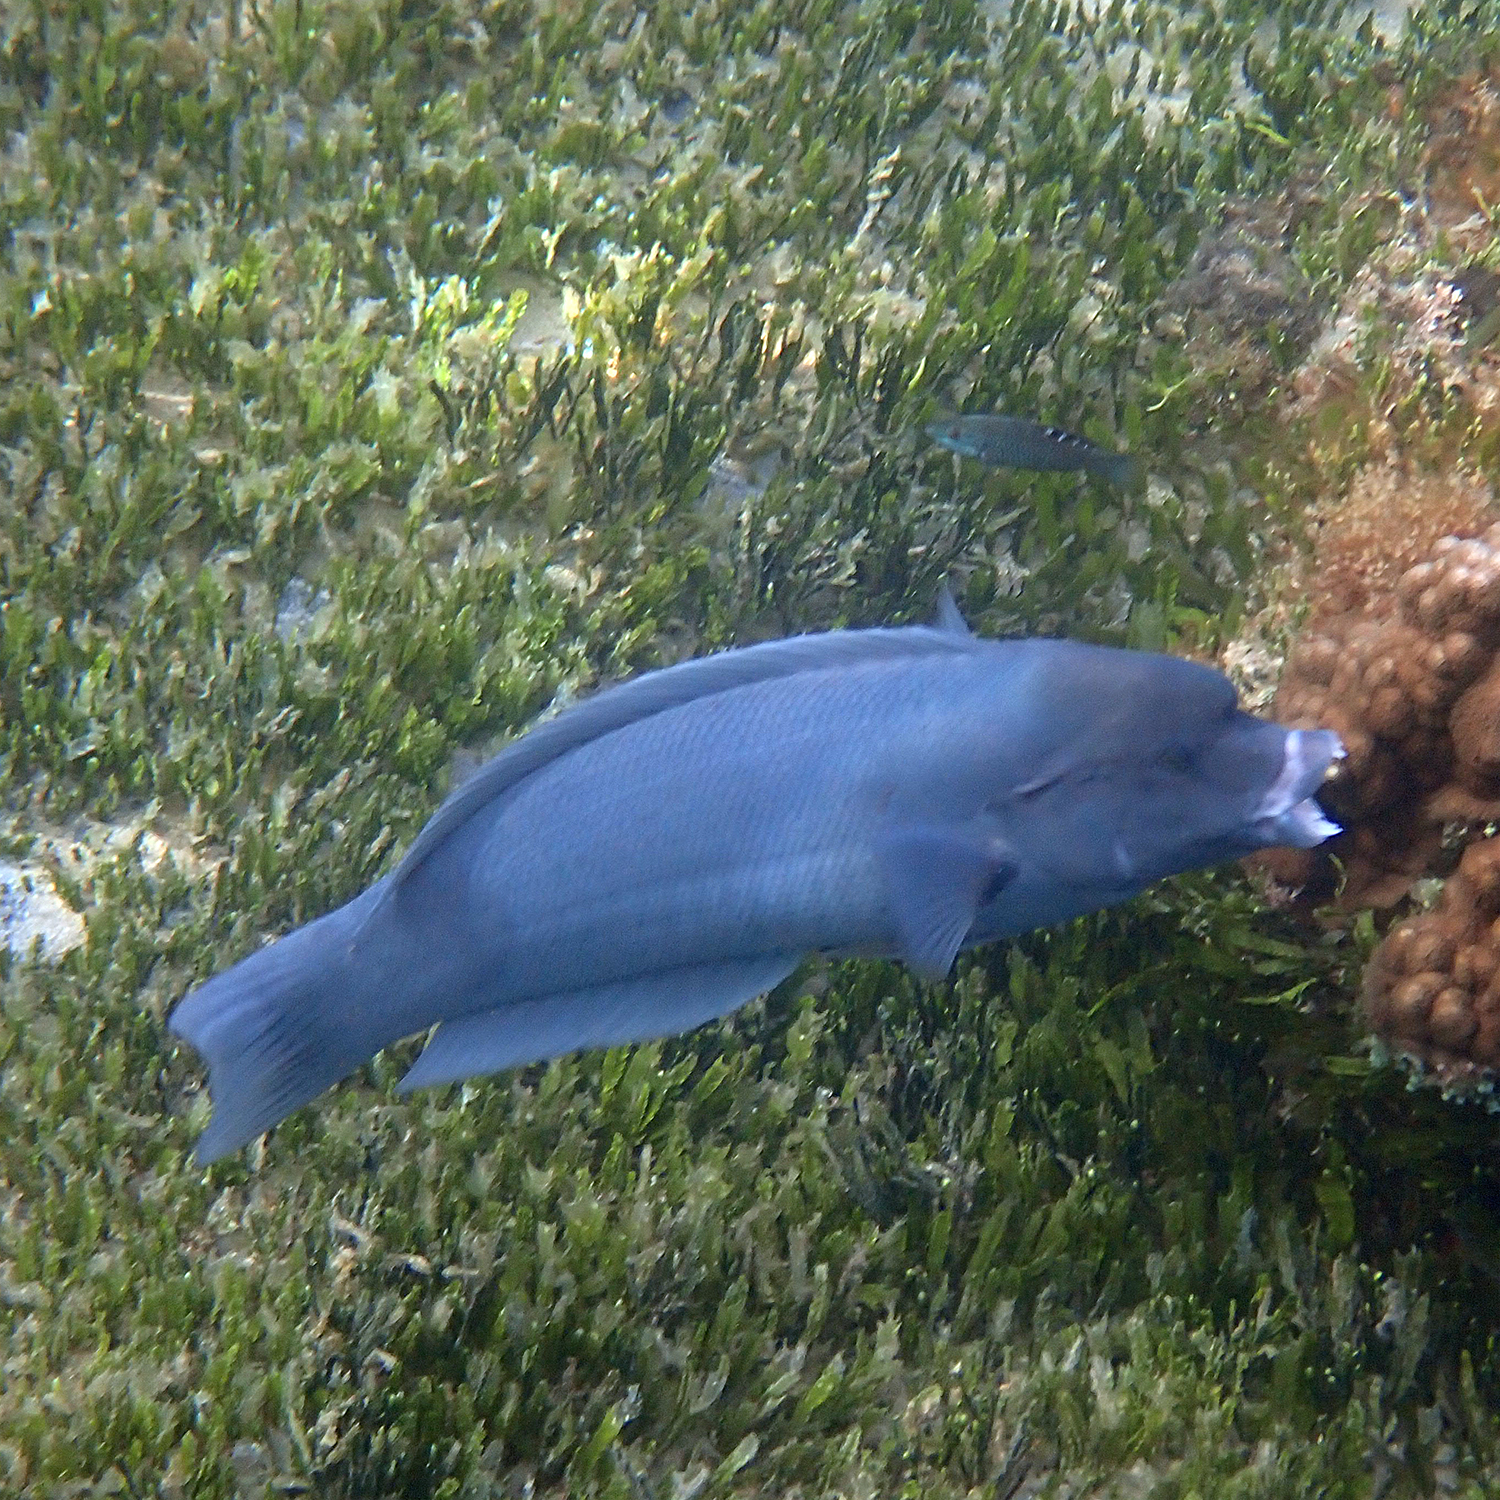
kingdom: Animalia
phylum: Chordata
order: Perciformes
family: Labridae
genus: Coris
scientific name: Coris bulbifrons
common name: Doubleheader
